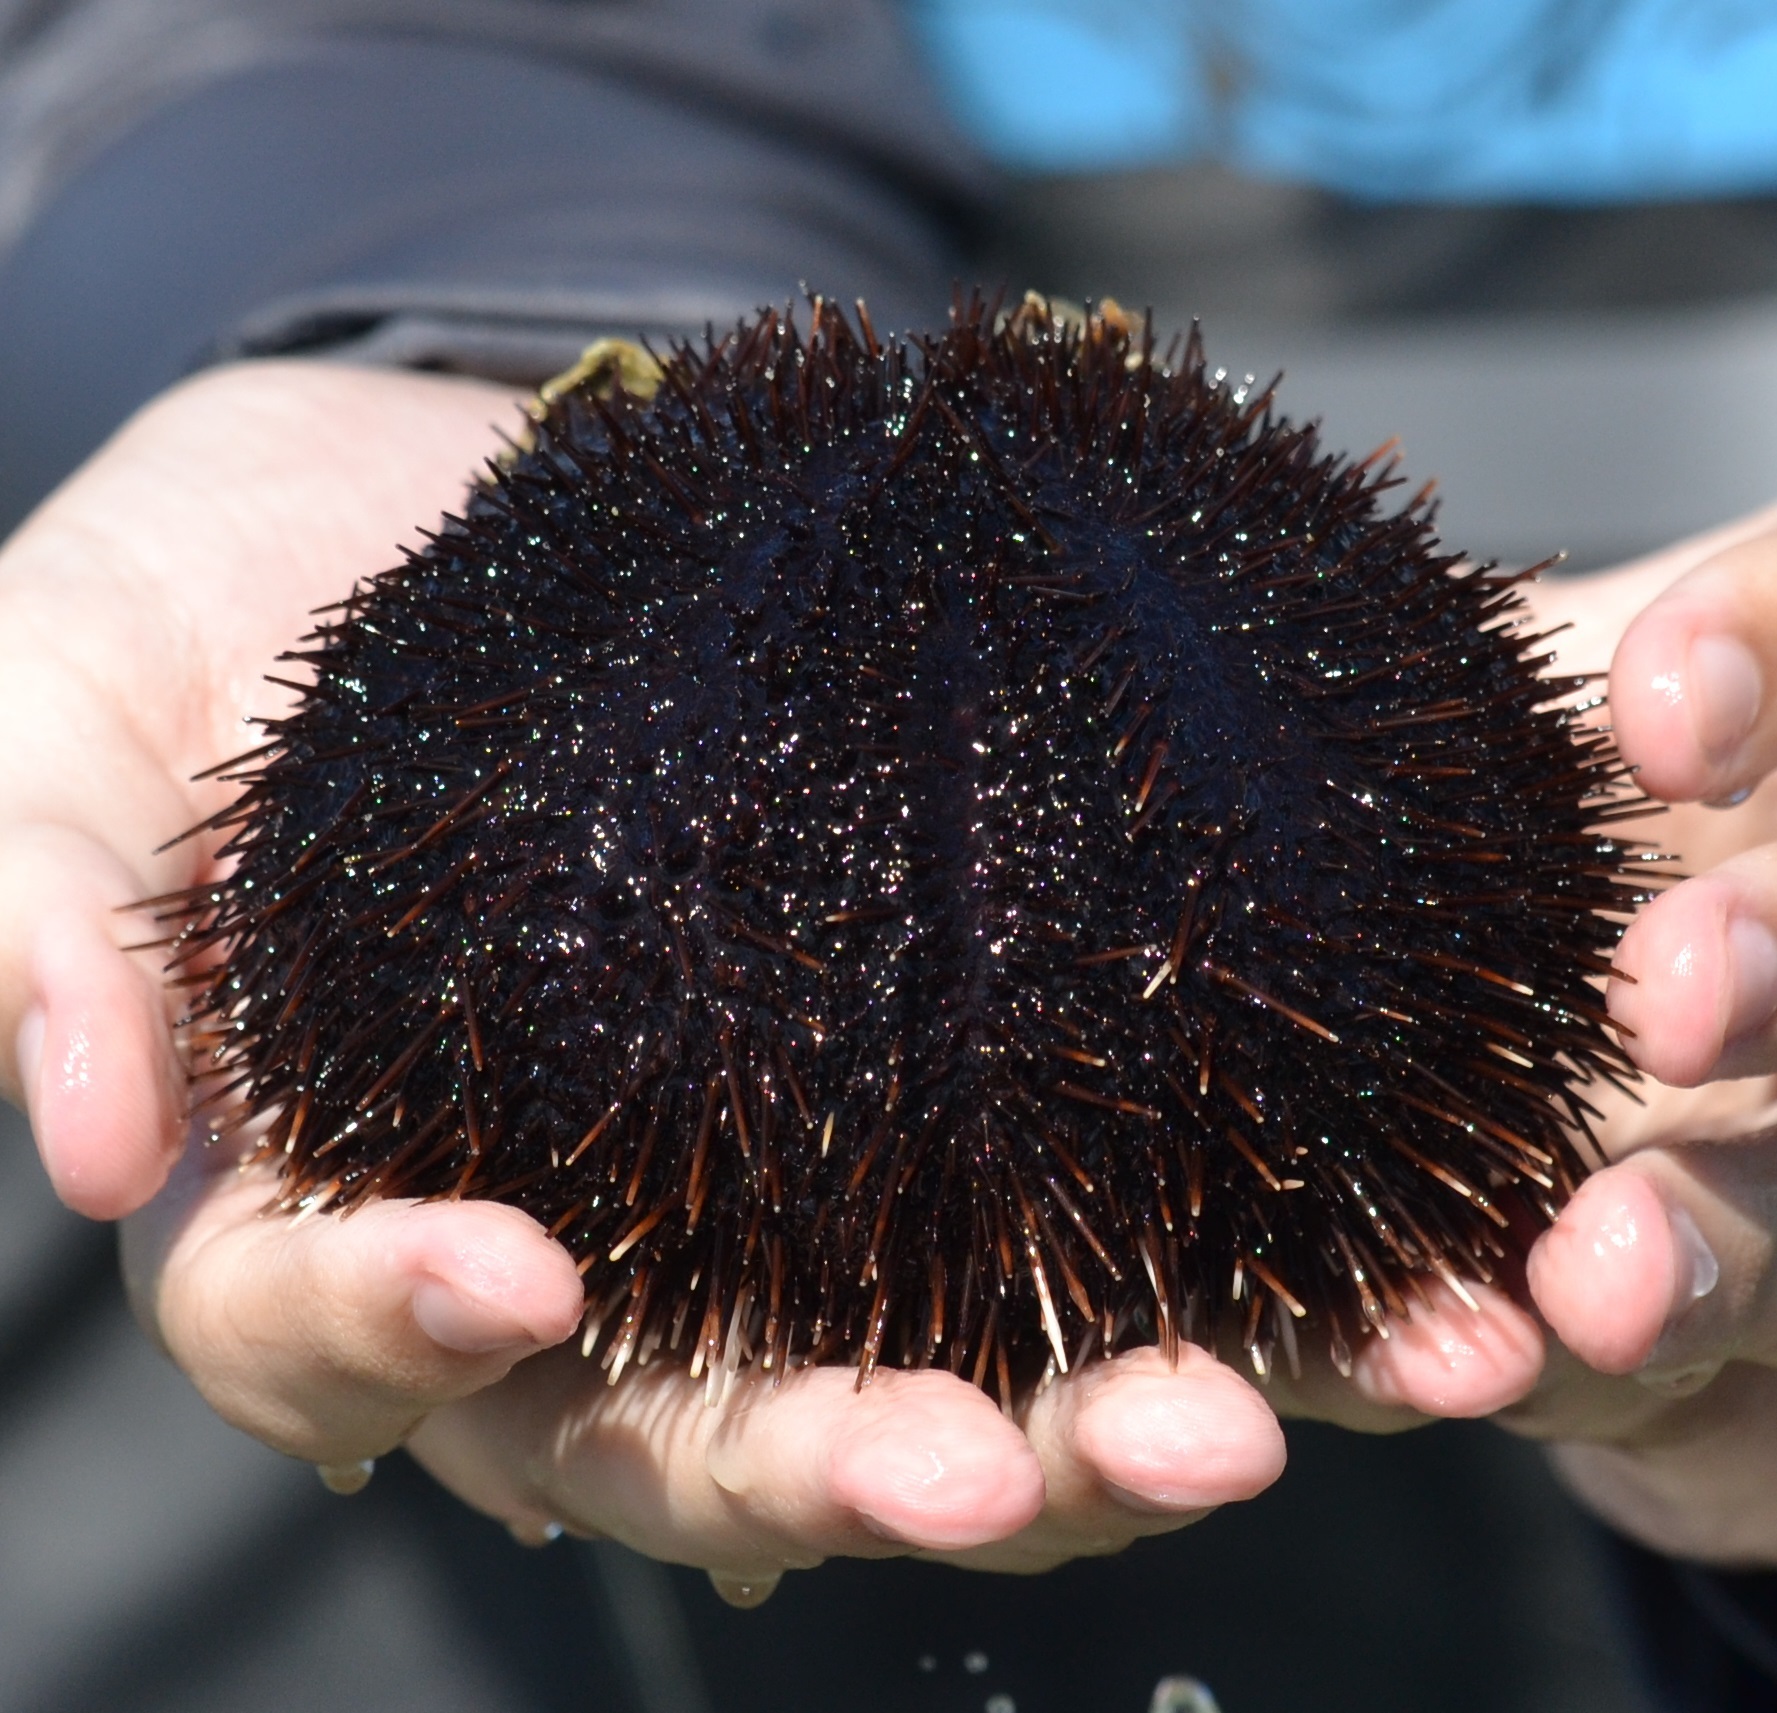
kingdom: Animalia
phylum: Echinodermata
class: Echinoidea
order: Camarodonta
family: Toxopneustidae
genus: Tripneustes
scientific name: Tripneustes gratilla
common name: Bischofsmützenseeigel
